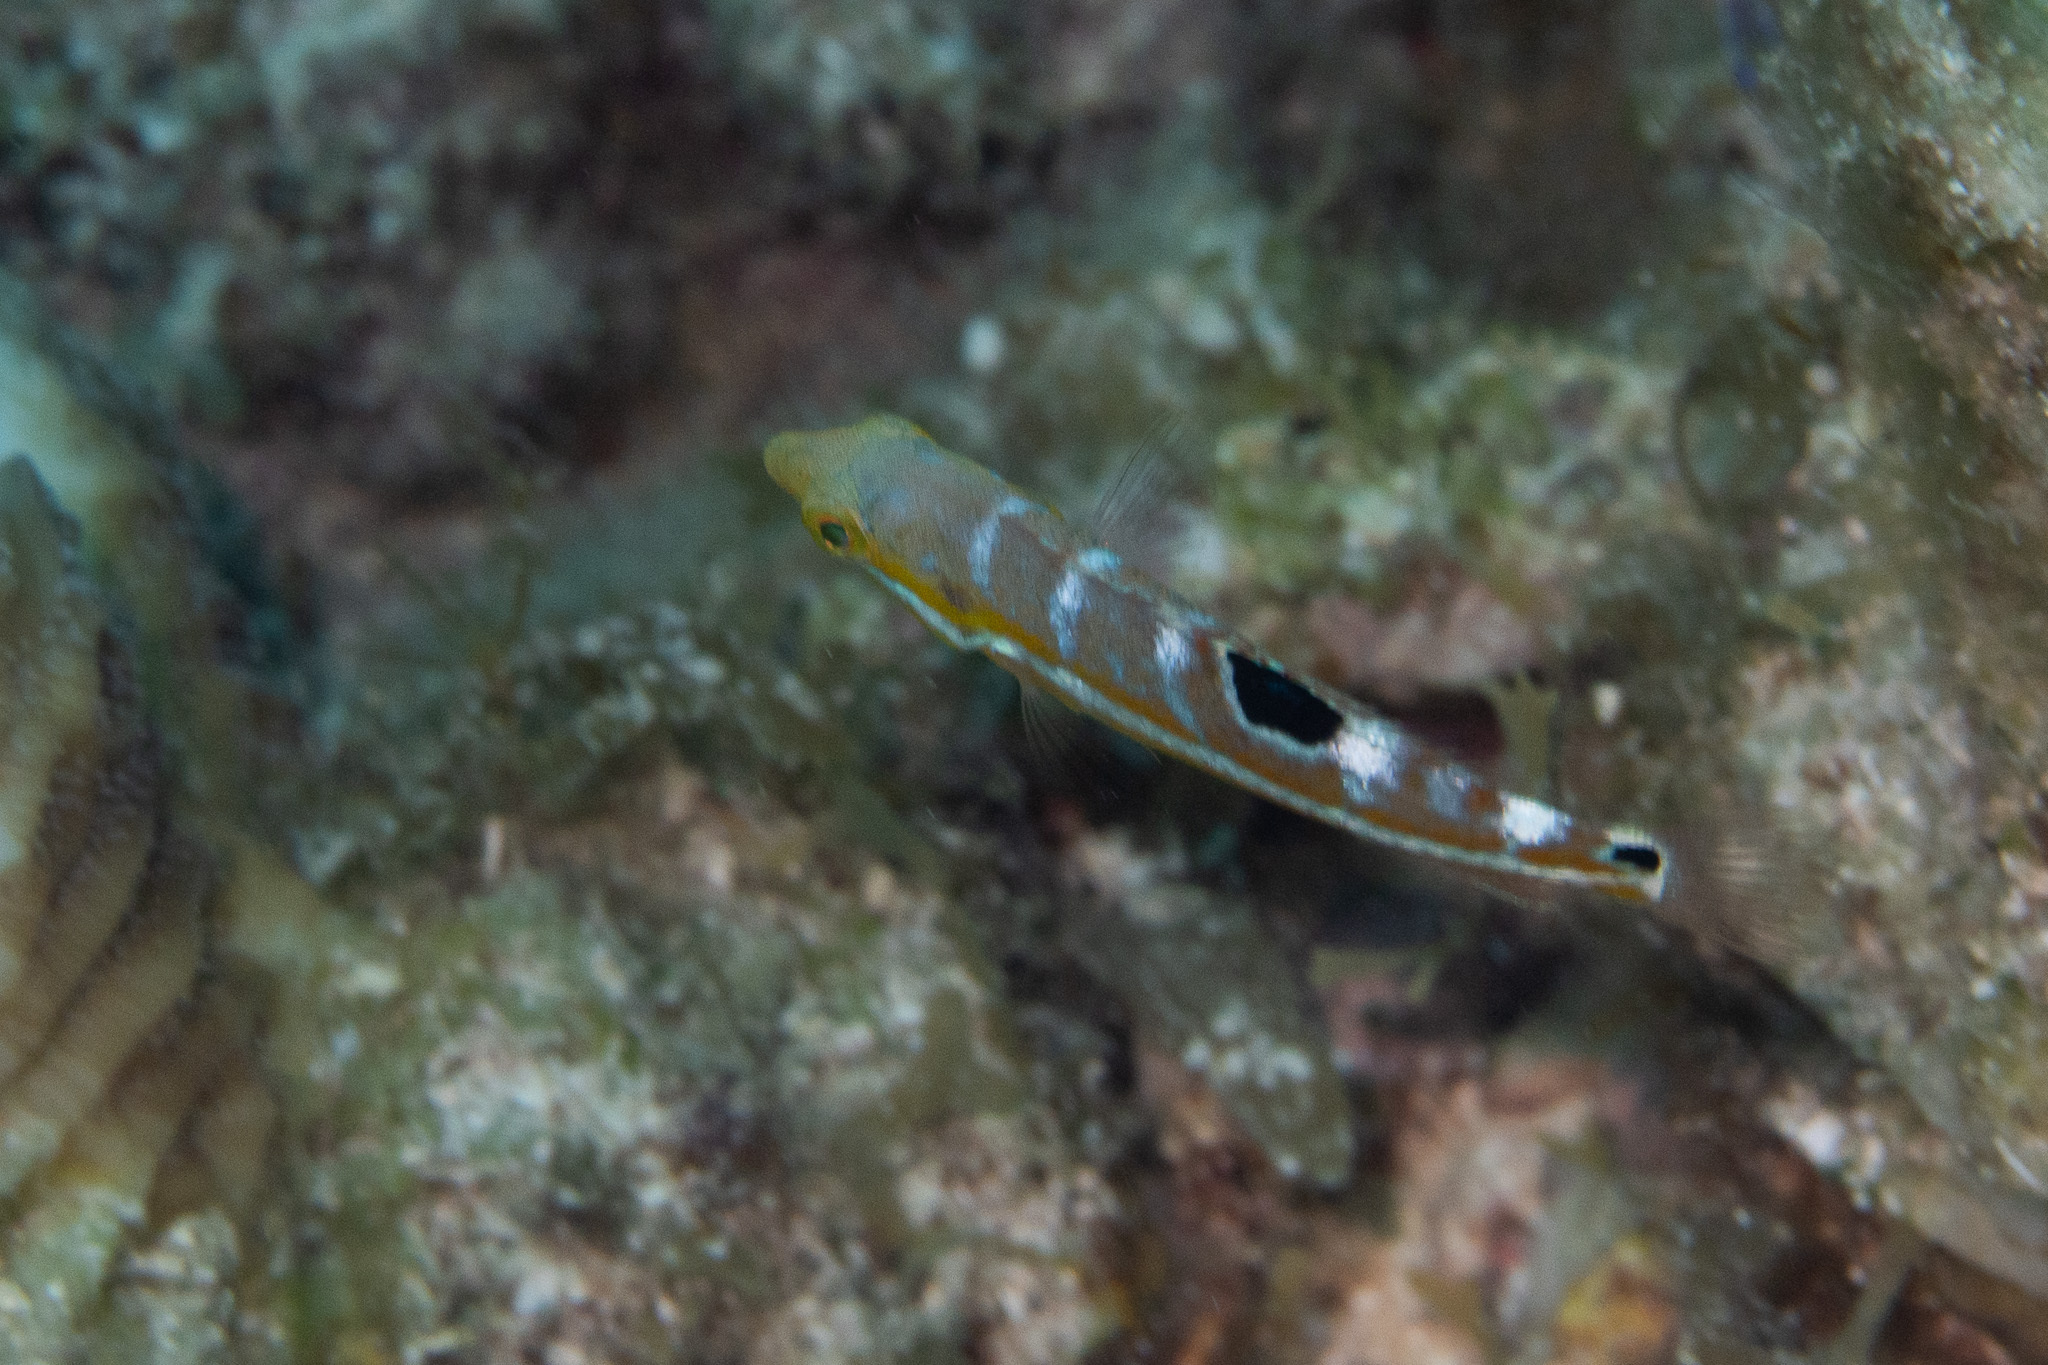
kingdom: Animalia
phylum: Chordata
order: Perciformes
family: Labridae
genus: Halichoeres
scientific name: Halichoeres radiatus
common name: Puddingwife
